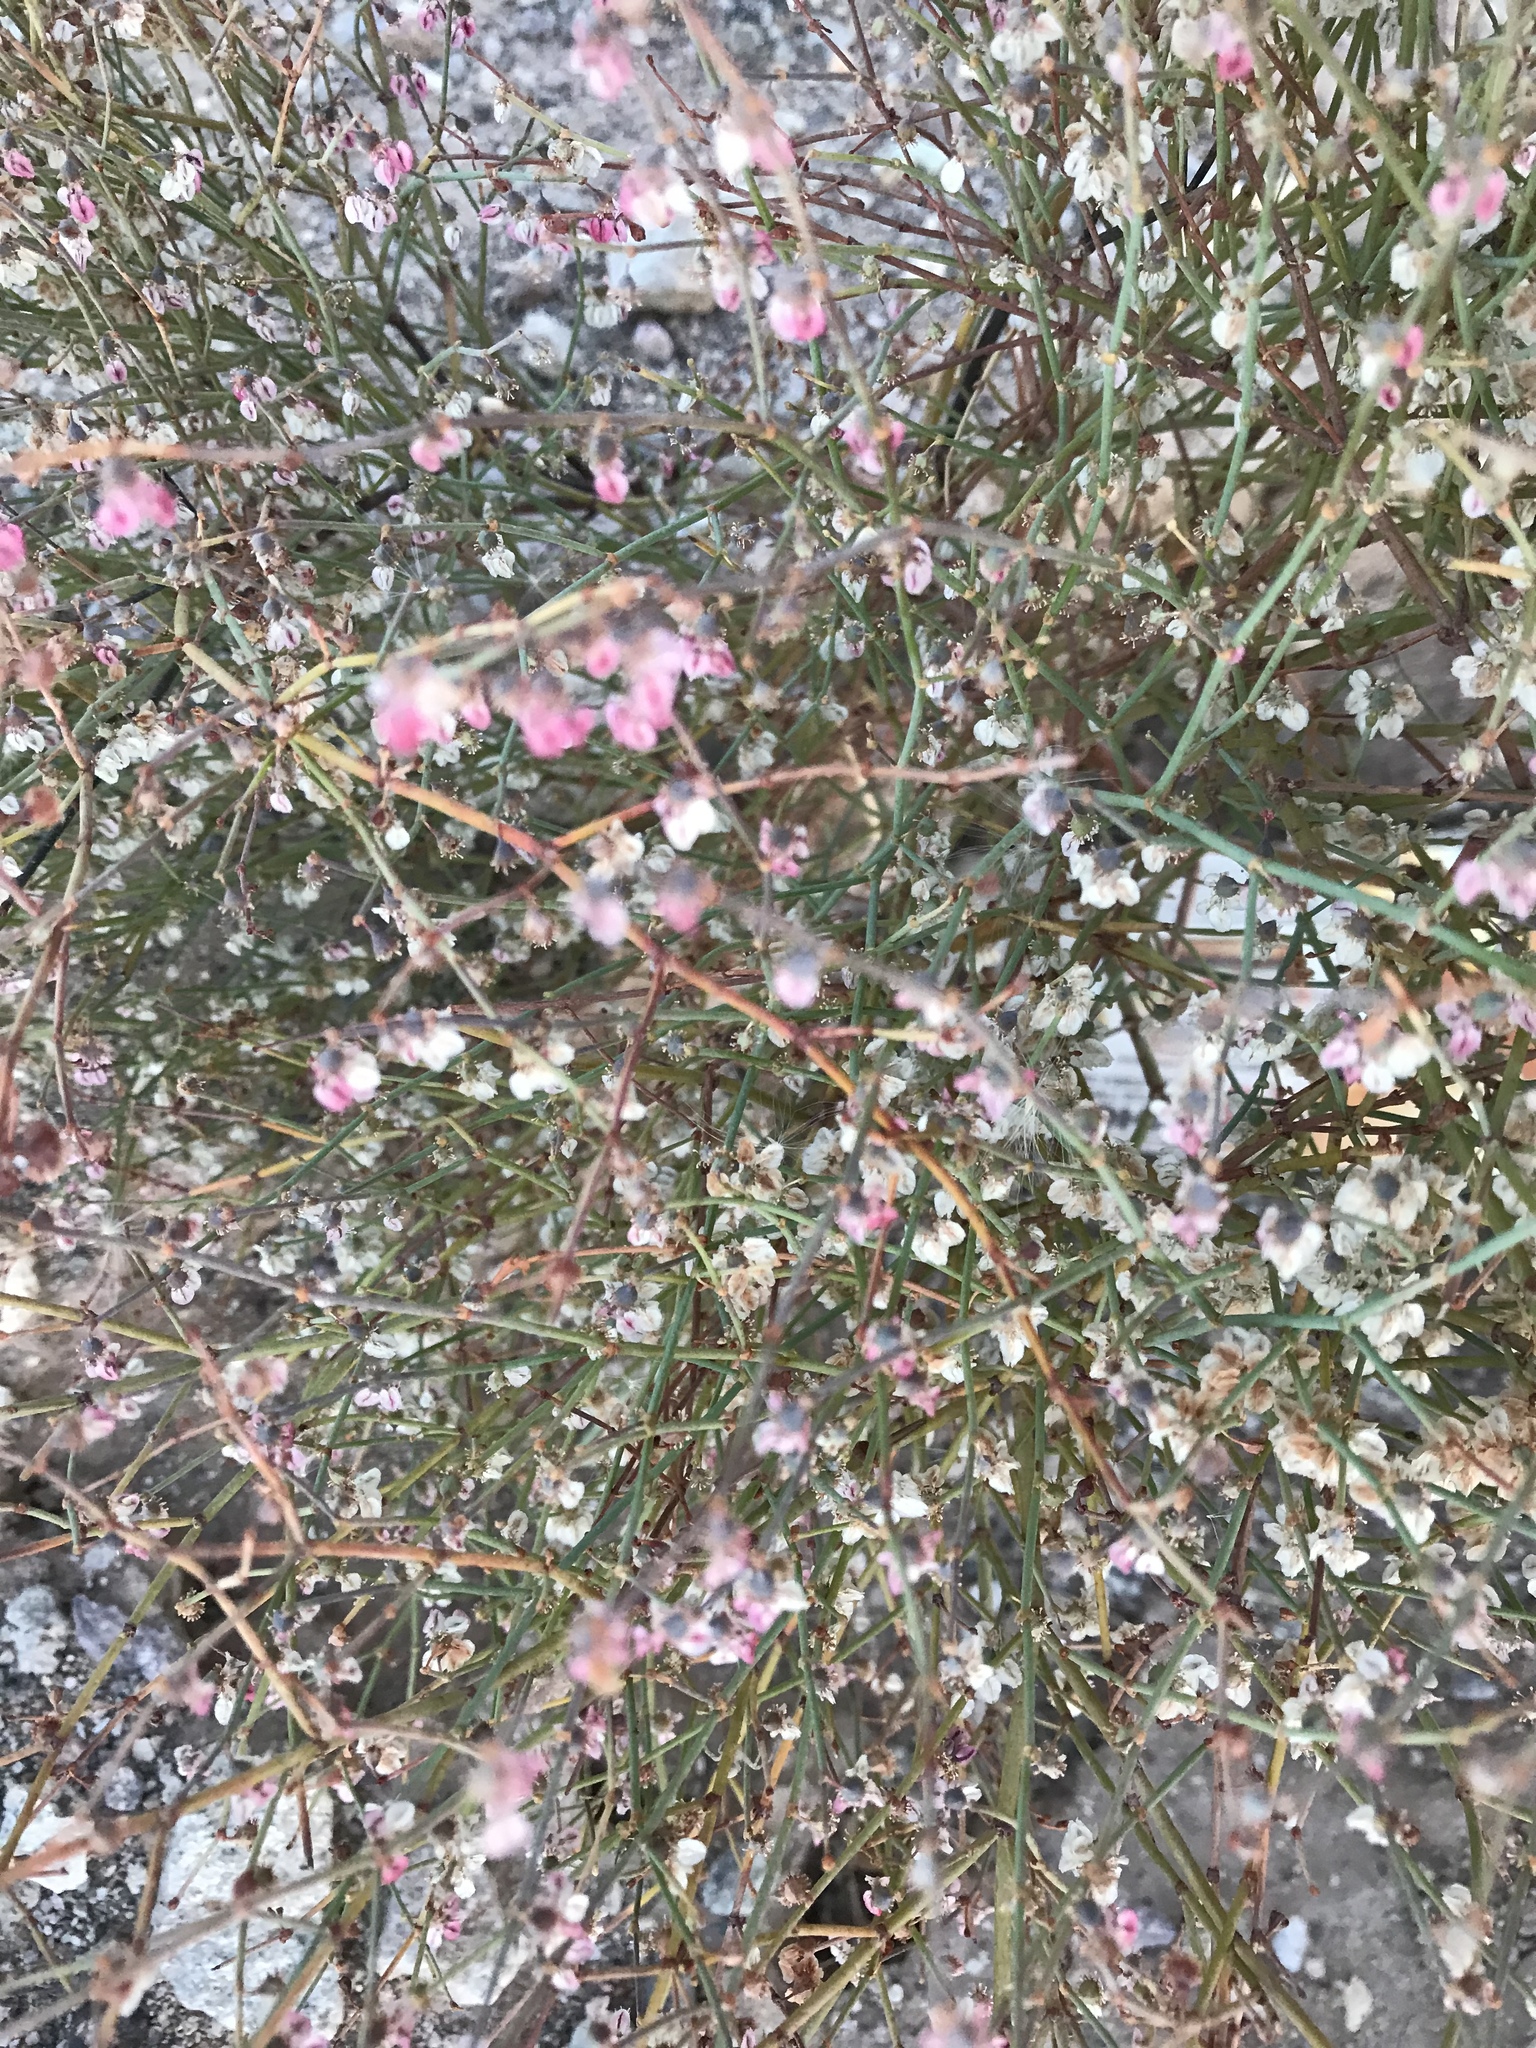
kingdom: Plantae
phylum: Tracheophyta
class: Magnoliopsida
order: Caryophyllales
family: Polygonaceae
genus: Eriogonum
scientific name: Eriogonum deflexum
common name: Skeleton-weed
